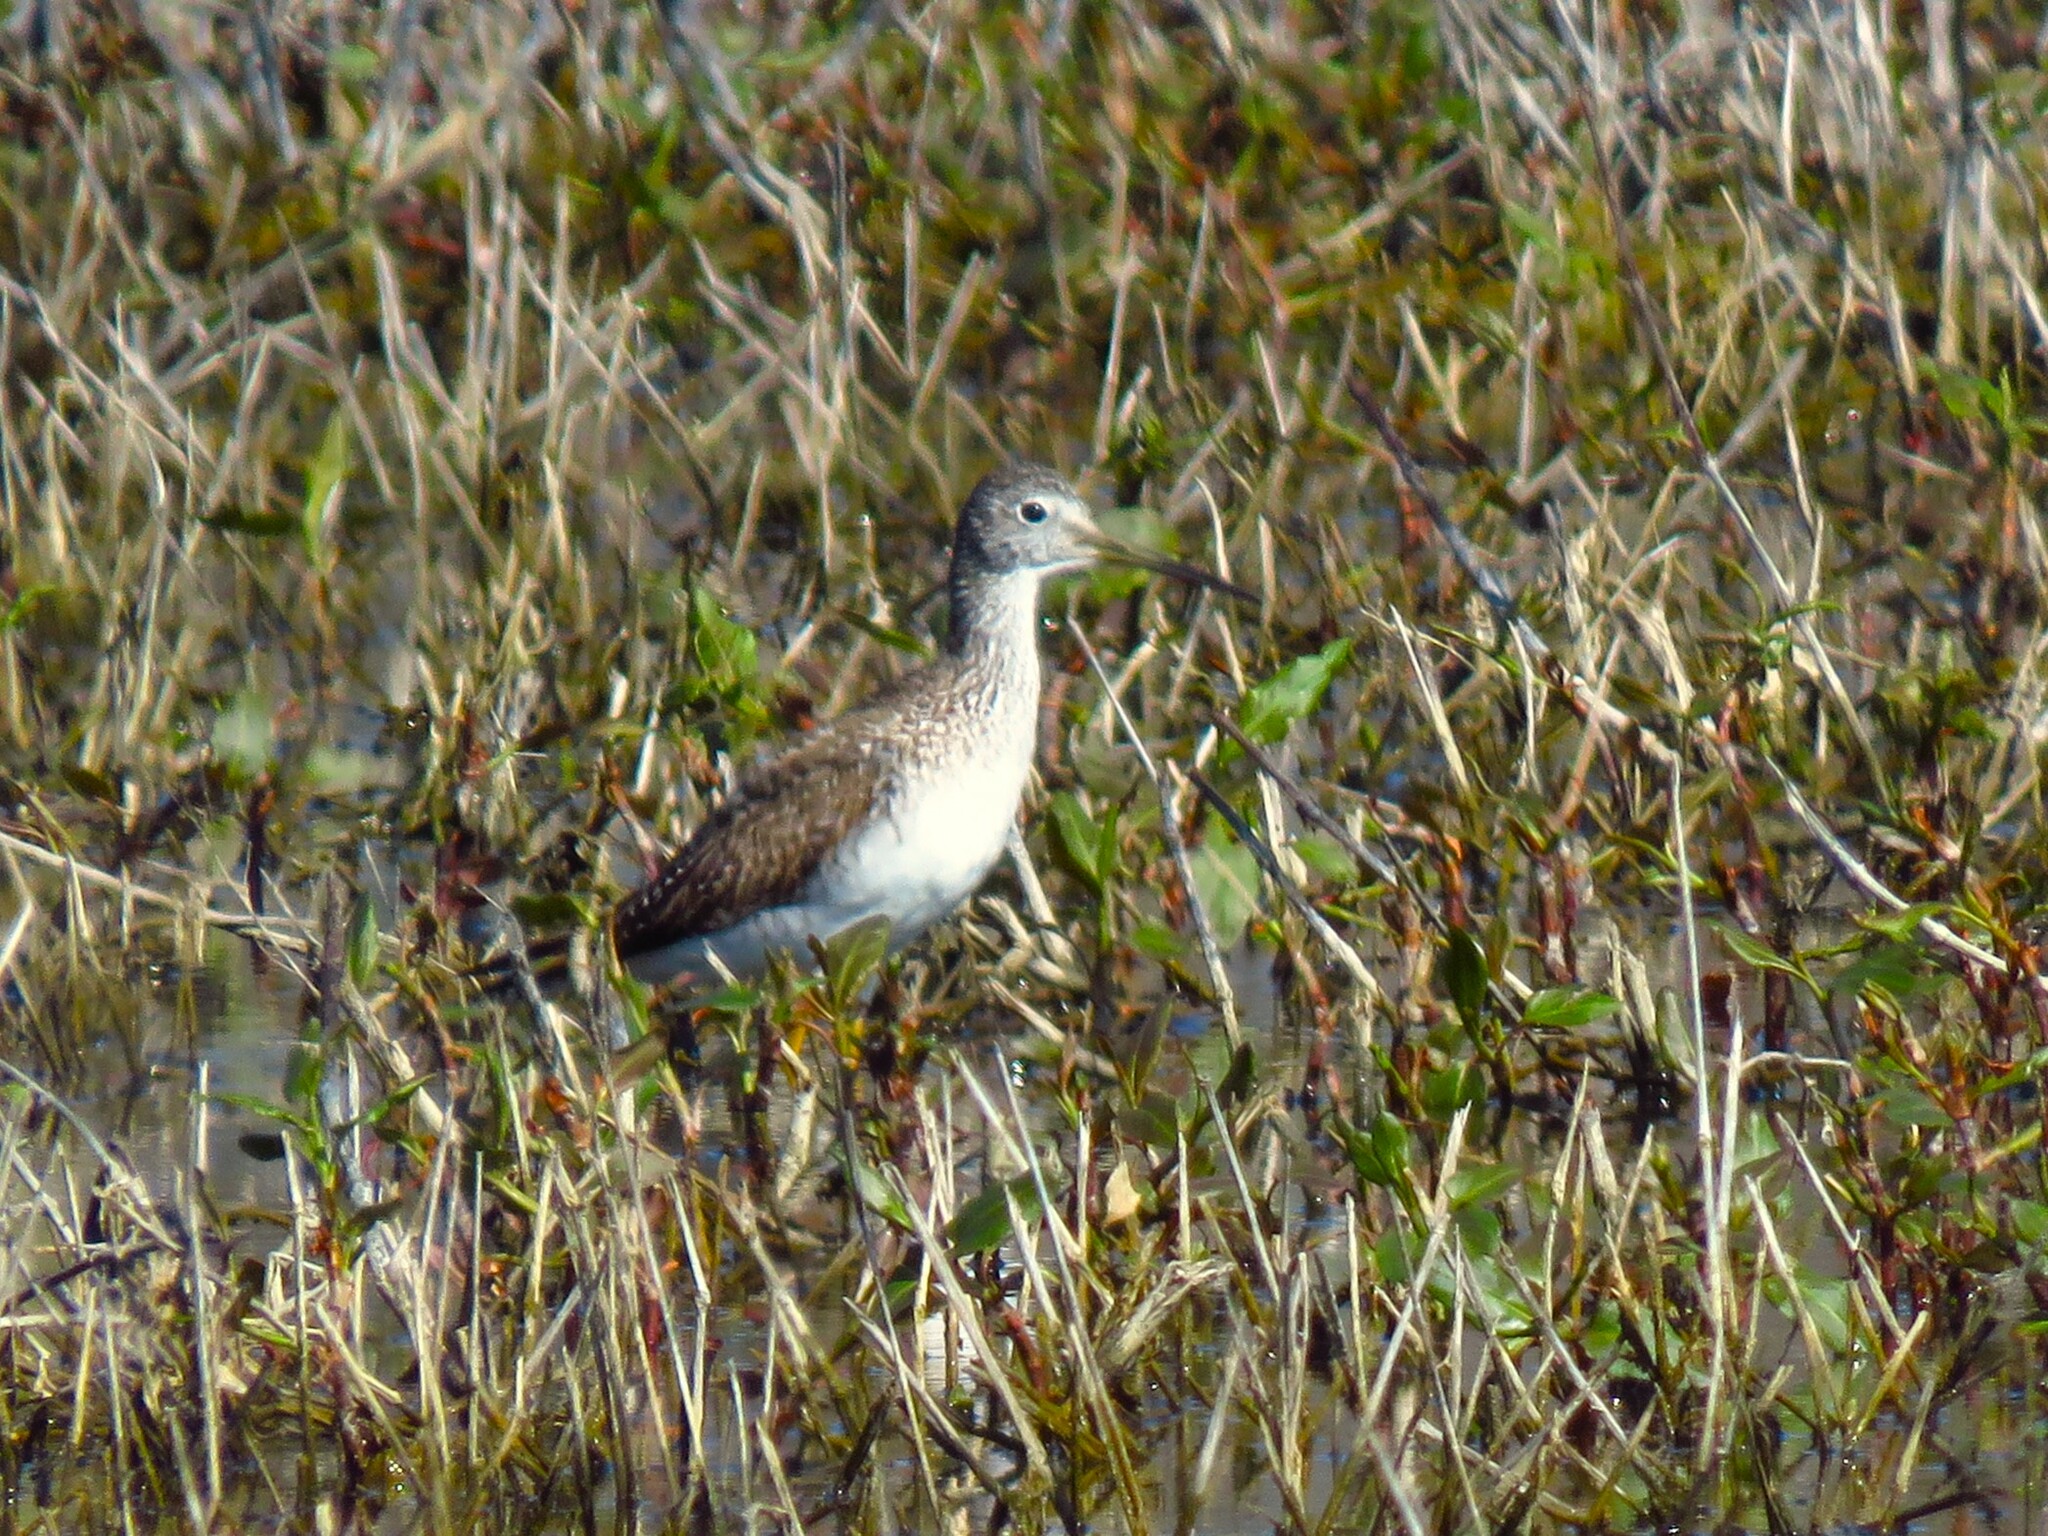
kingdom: Animalia
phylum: Chordata
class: Aves
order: Charadriiformes
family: Scolopacidae
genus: Tringa
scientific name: Tringa melanoleuca
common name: Greater yellowlegs
